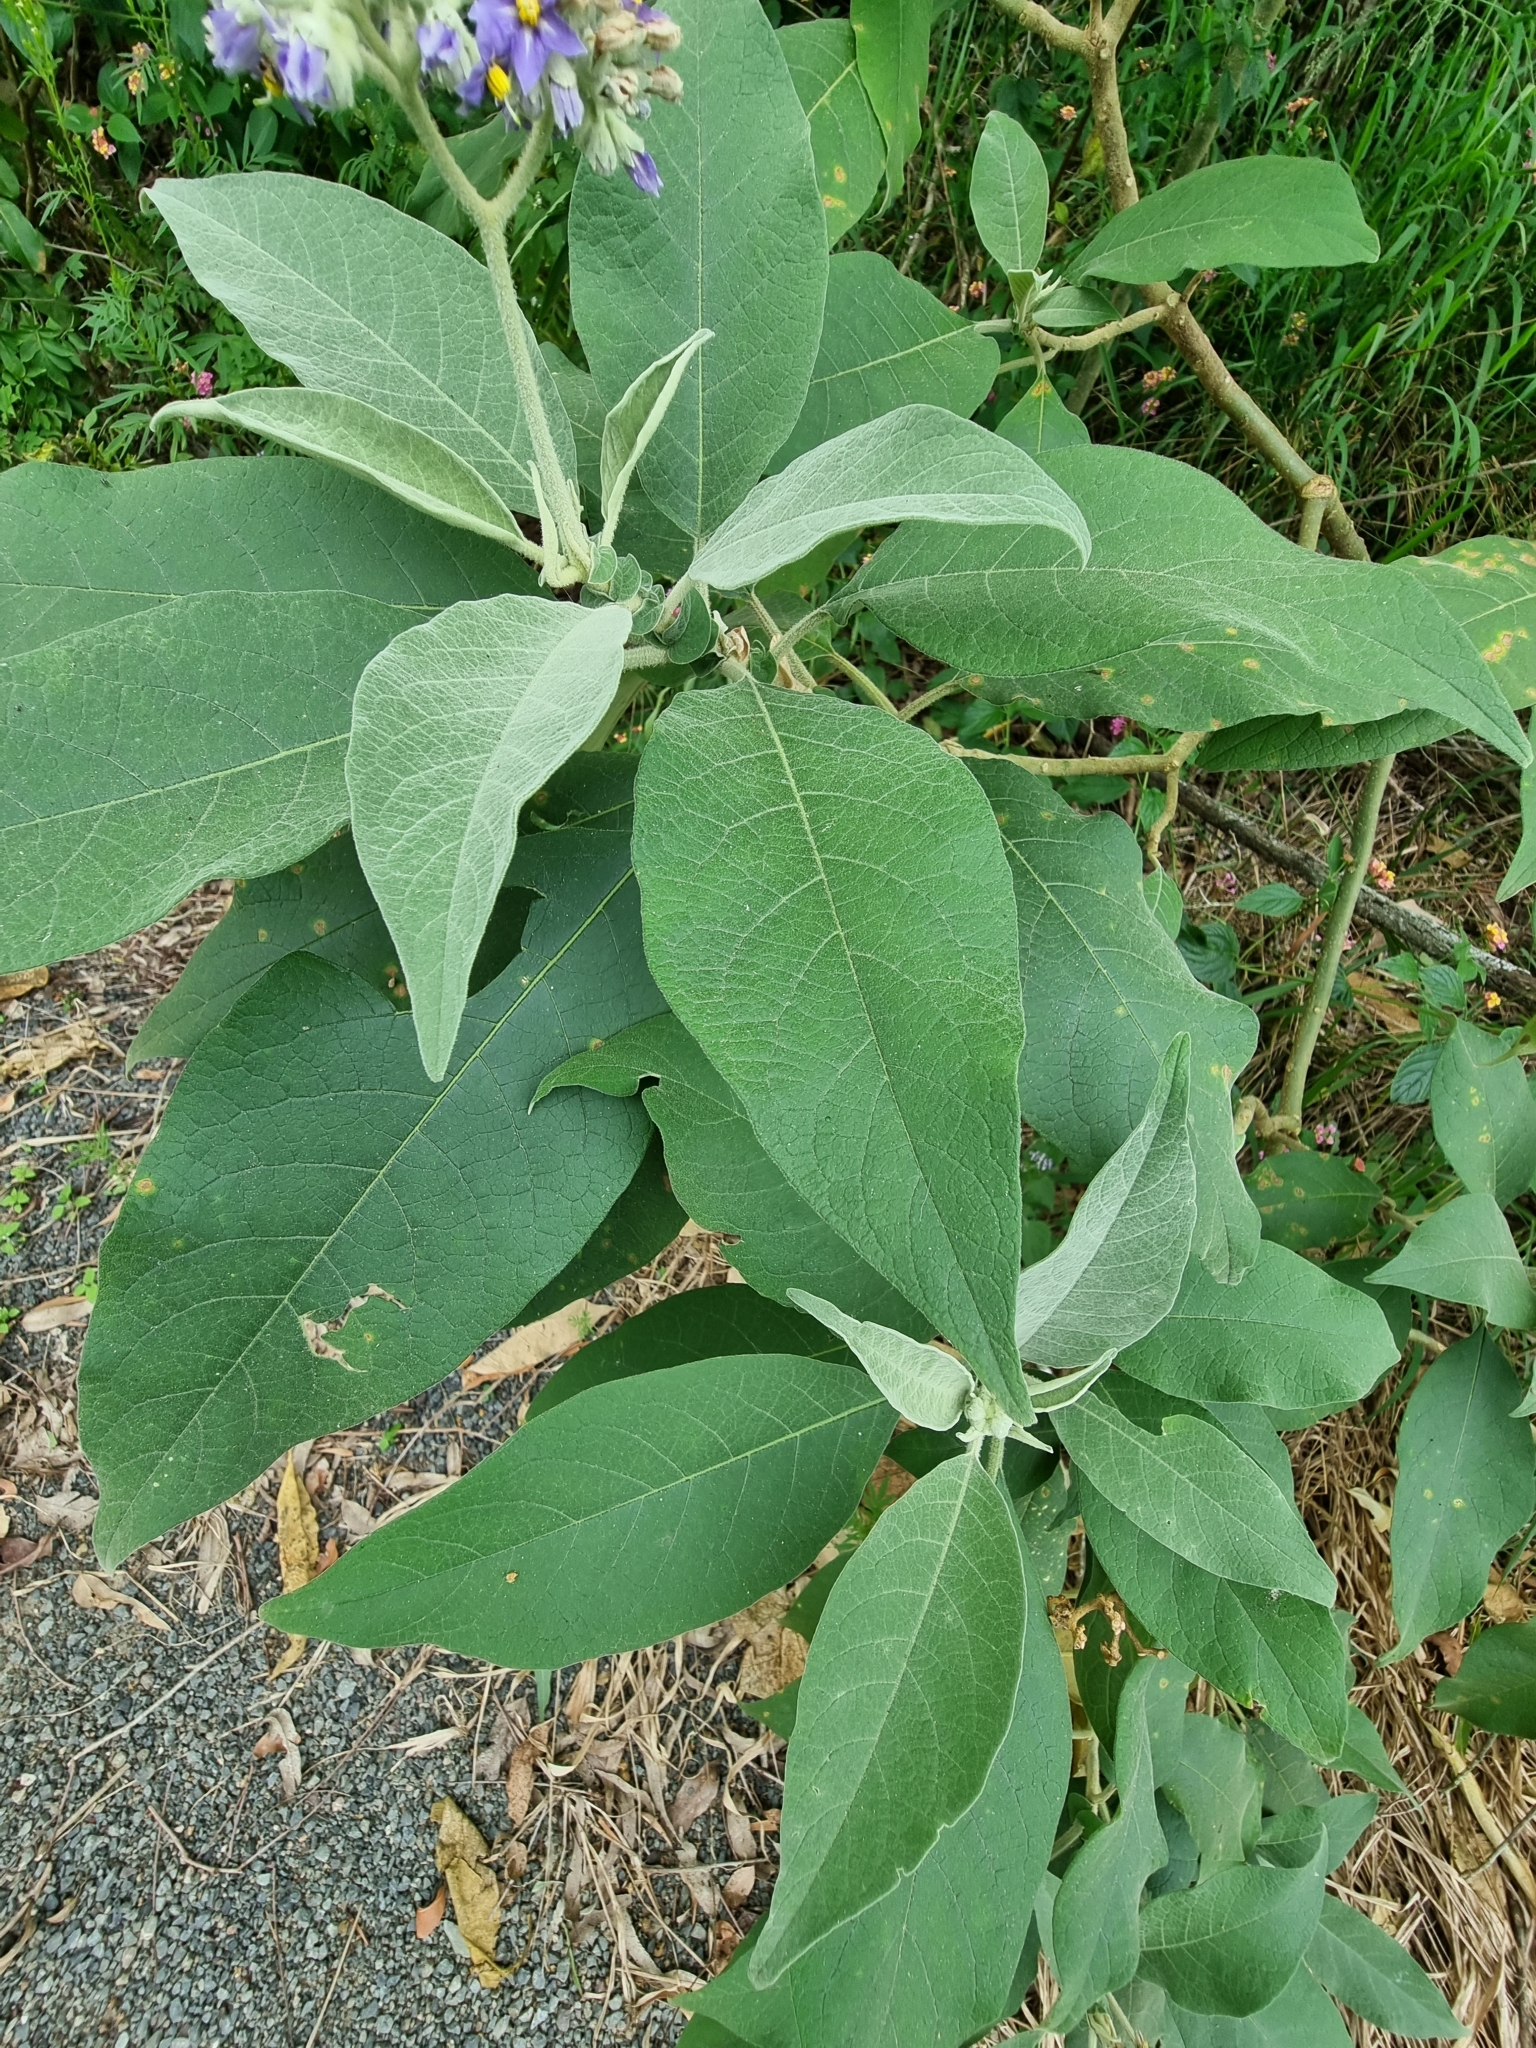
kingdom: Plantae
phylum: Tracheophyta
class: Magnoliopsida
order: Solanales
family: Solanaceae
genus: Solanum
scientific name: Solanum mauritianum
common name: Earleaf nightshade
